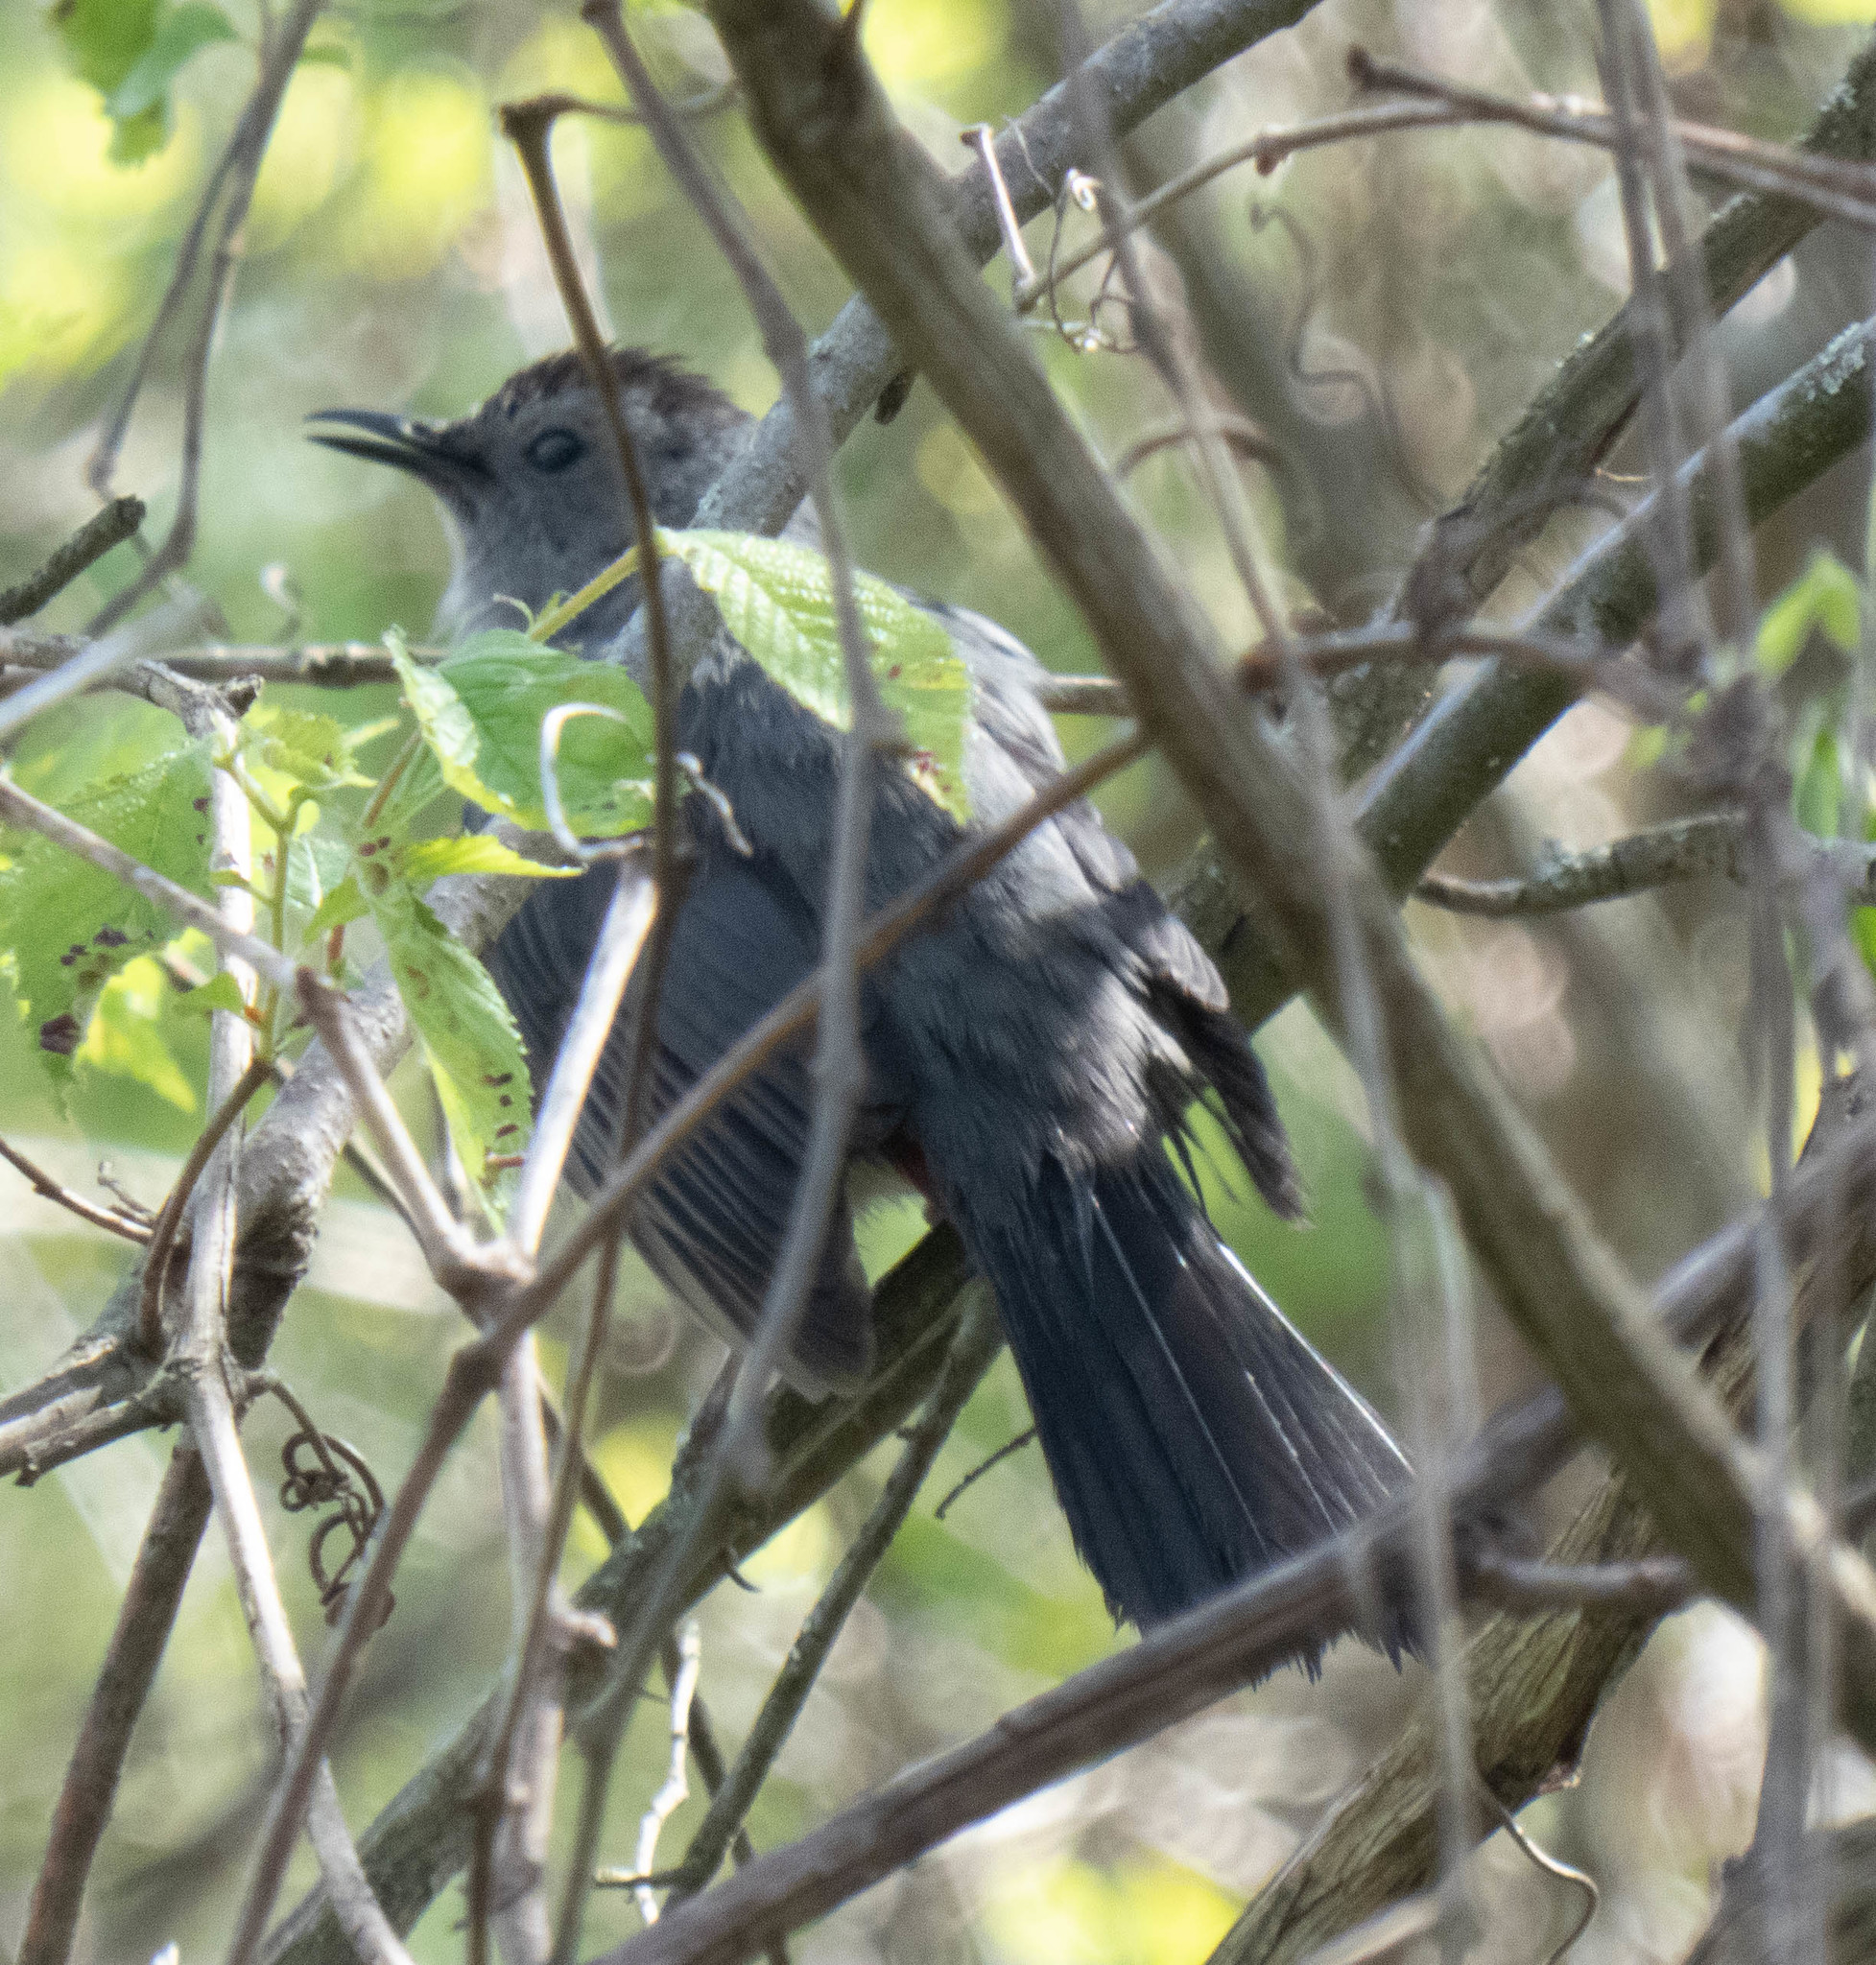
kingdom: Animalia
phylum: Chordata
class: Aves
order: Passeriformes
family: Mimidae
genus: Dumetella
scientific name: Dumetella carolinensis
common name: Gray catbird
